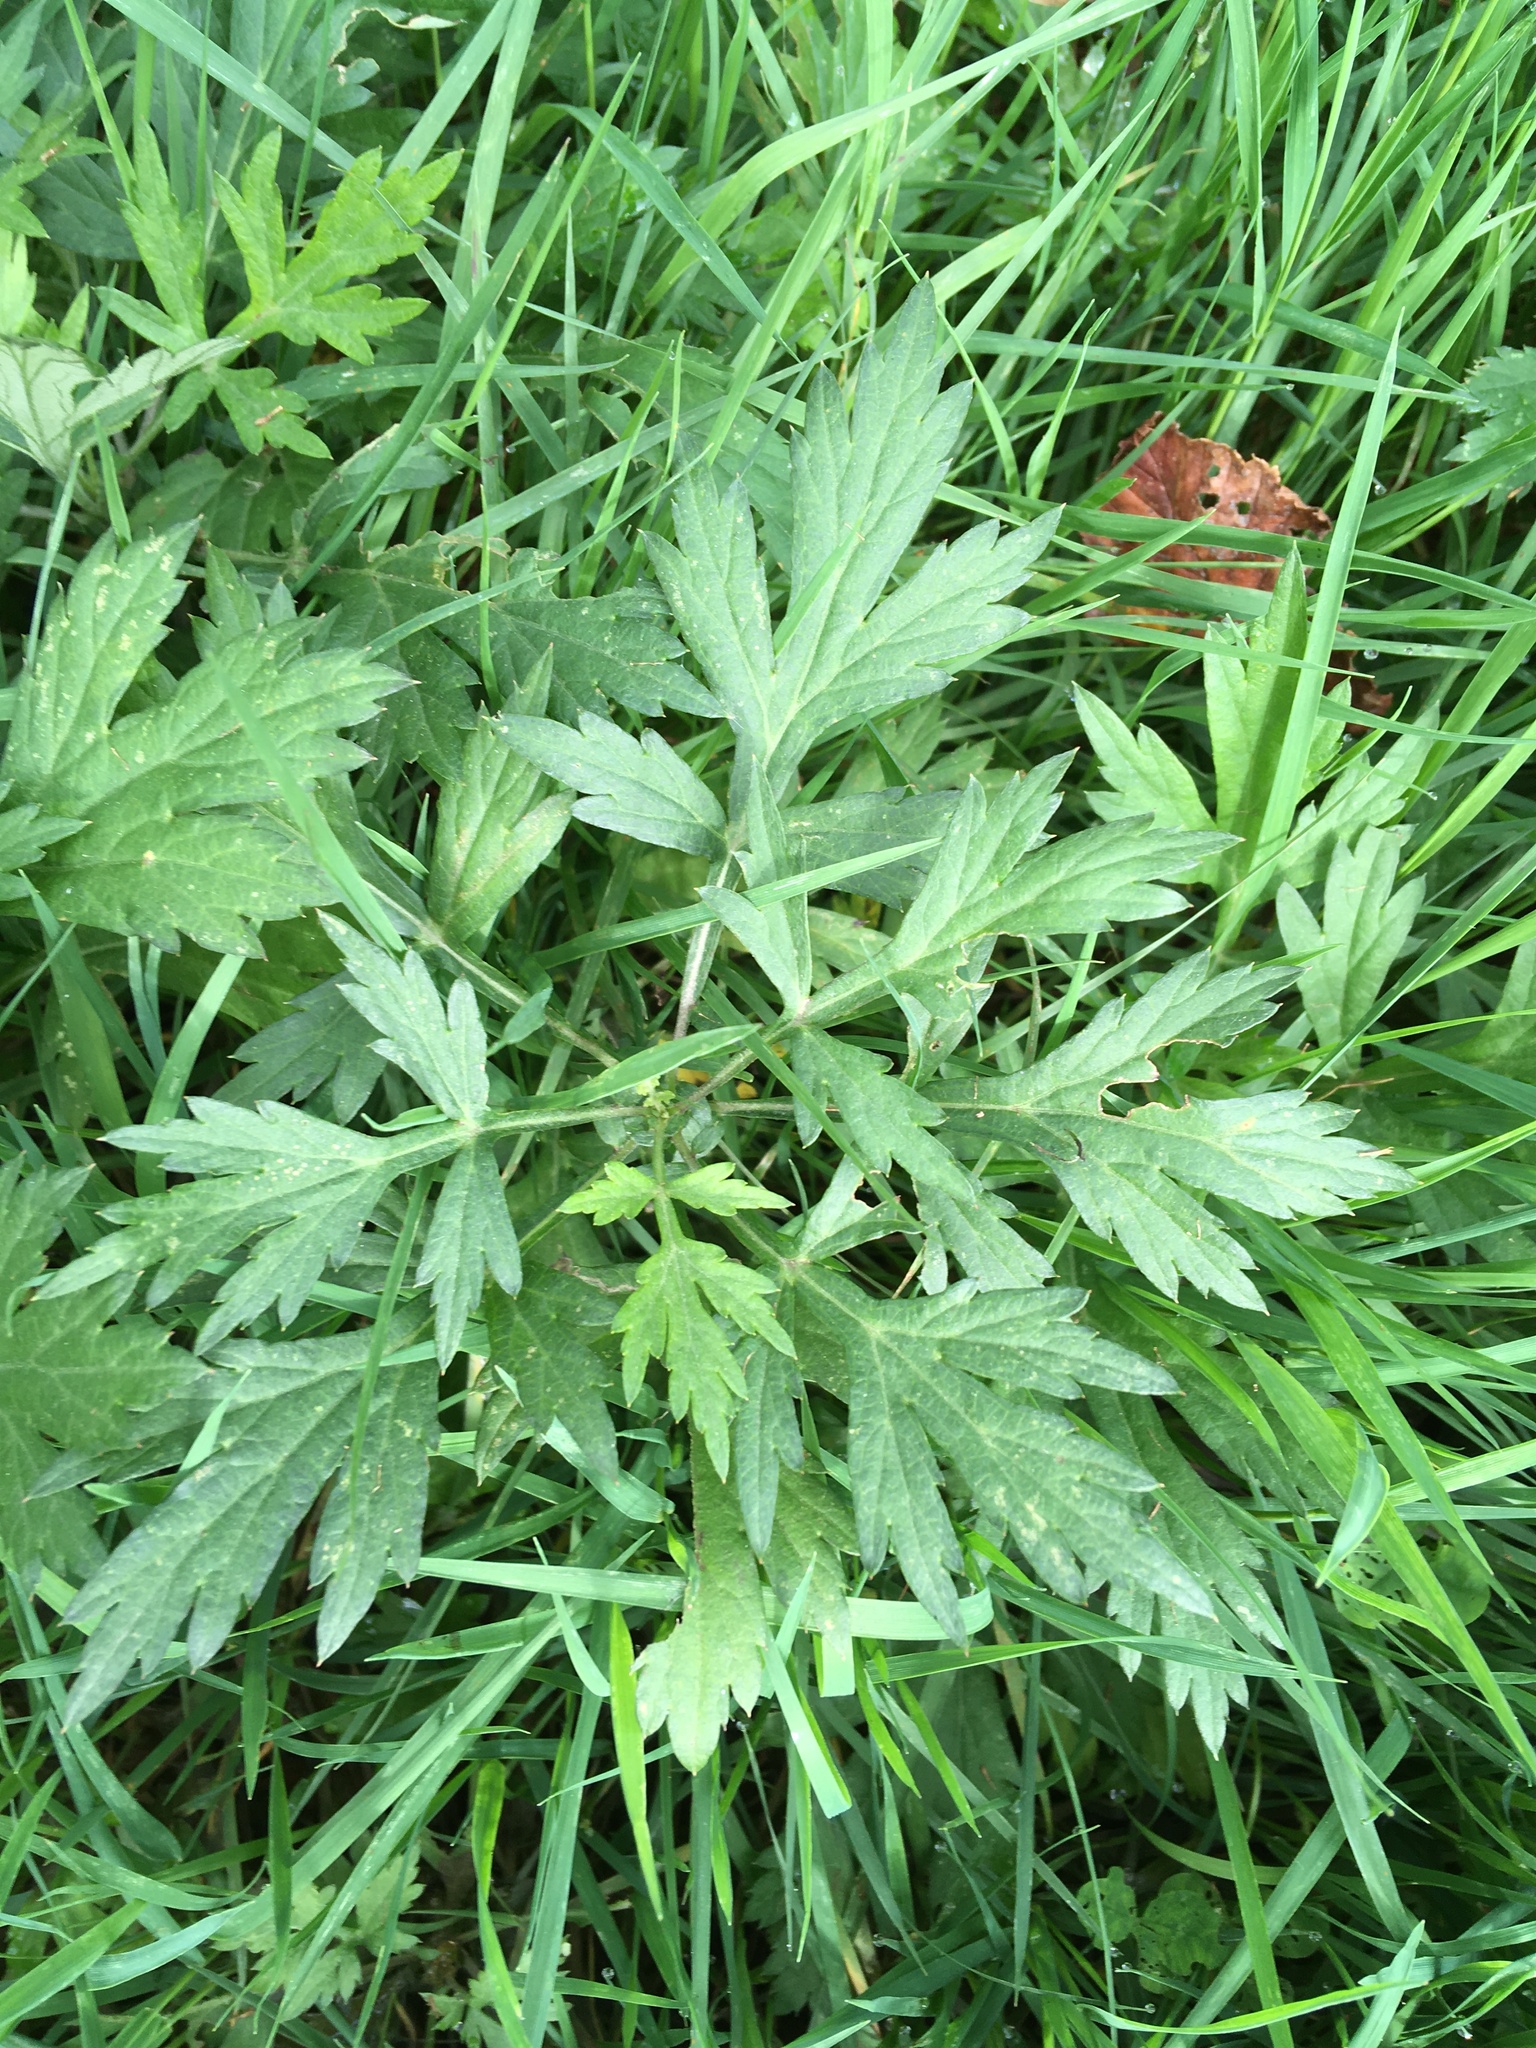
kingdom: Plantae
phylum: Tracheophyta
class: Magnoliopsida
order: Asterales
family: Asteraceae
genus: Artemisia
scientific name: Artemisia vulgaris
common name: Mugwort
